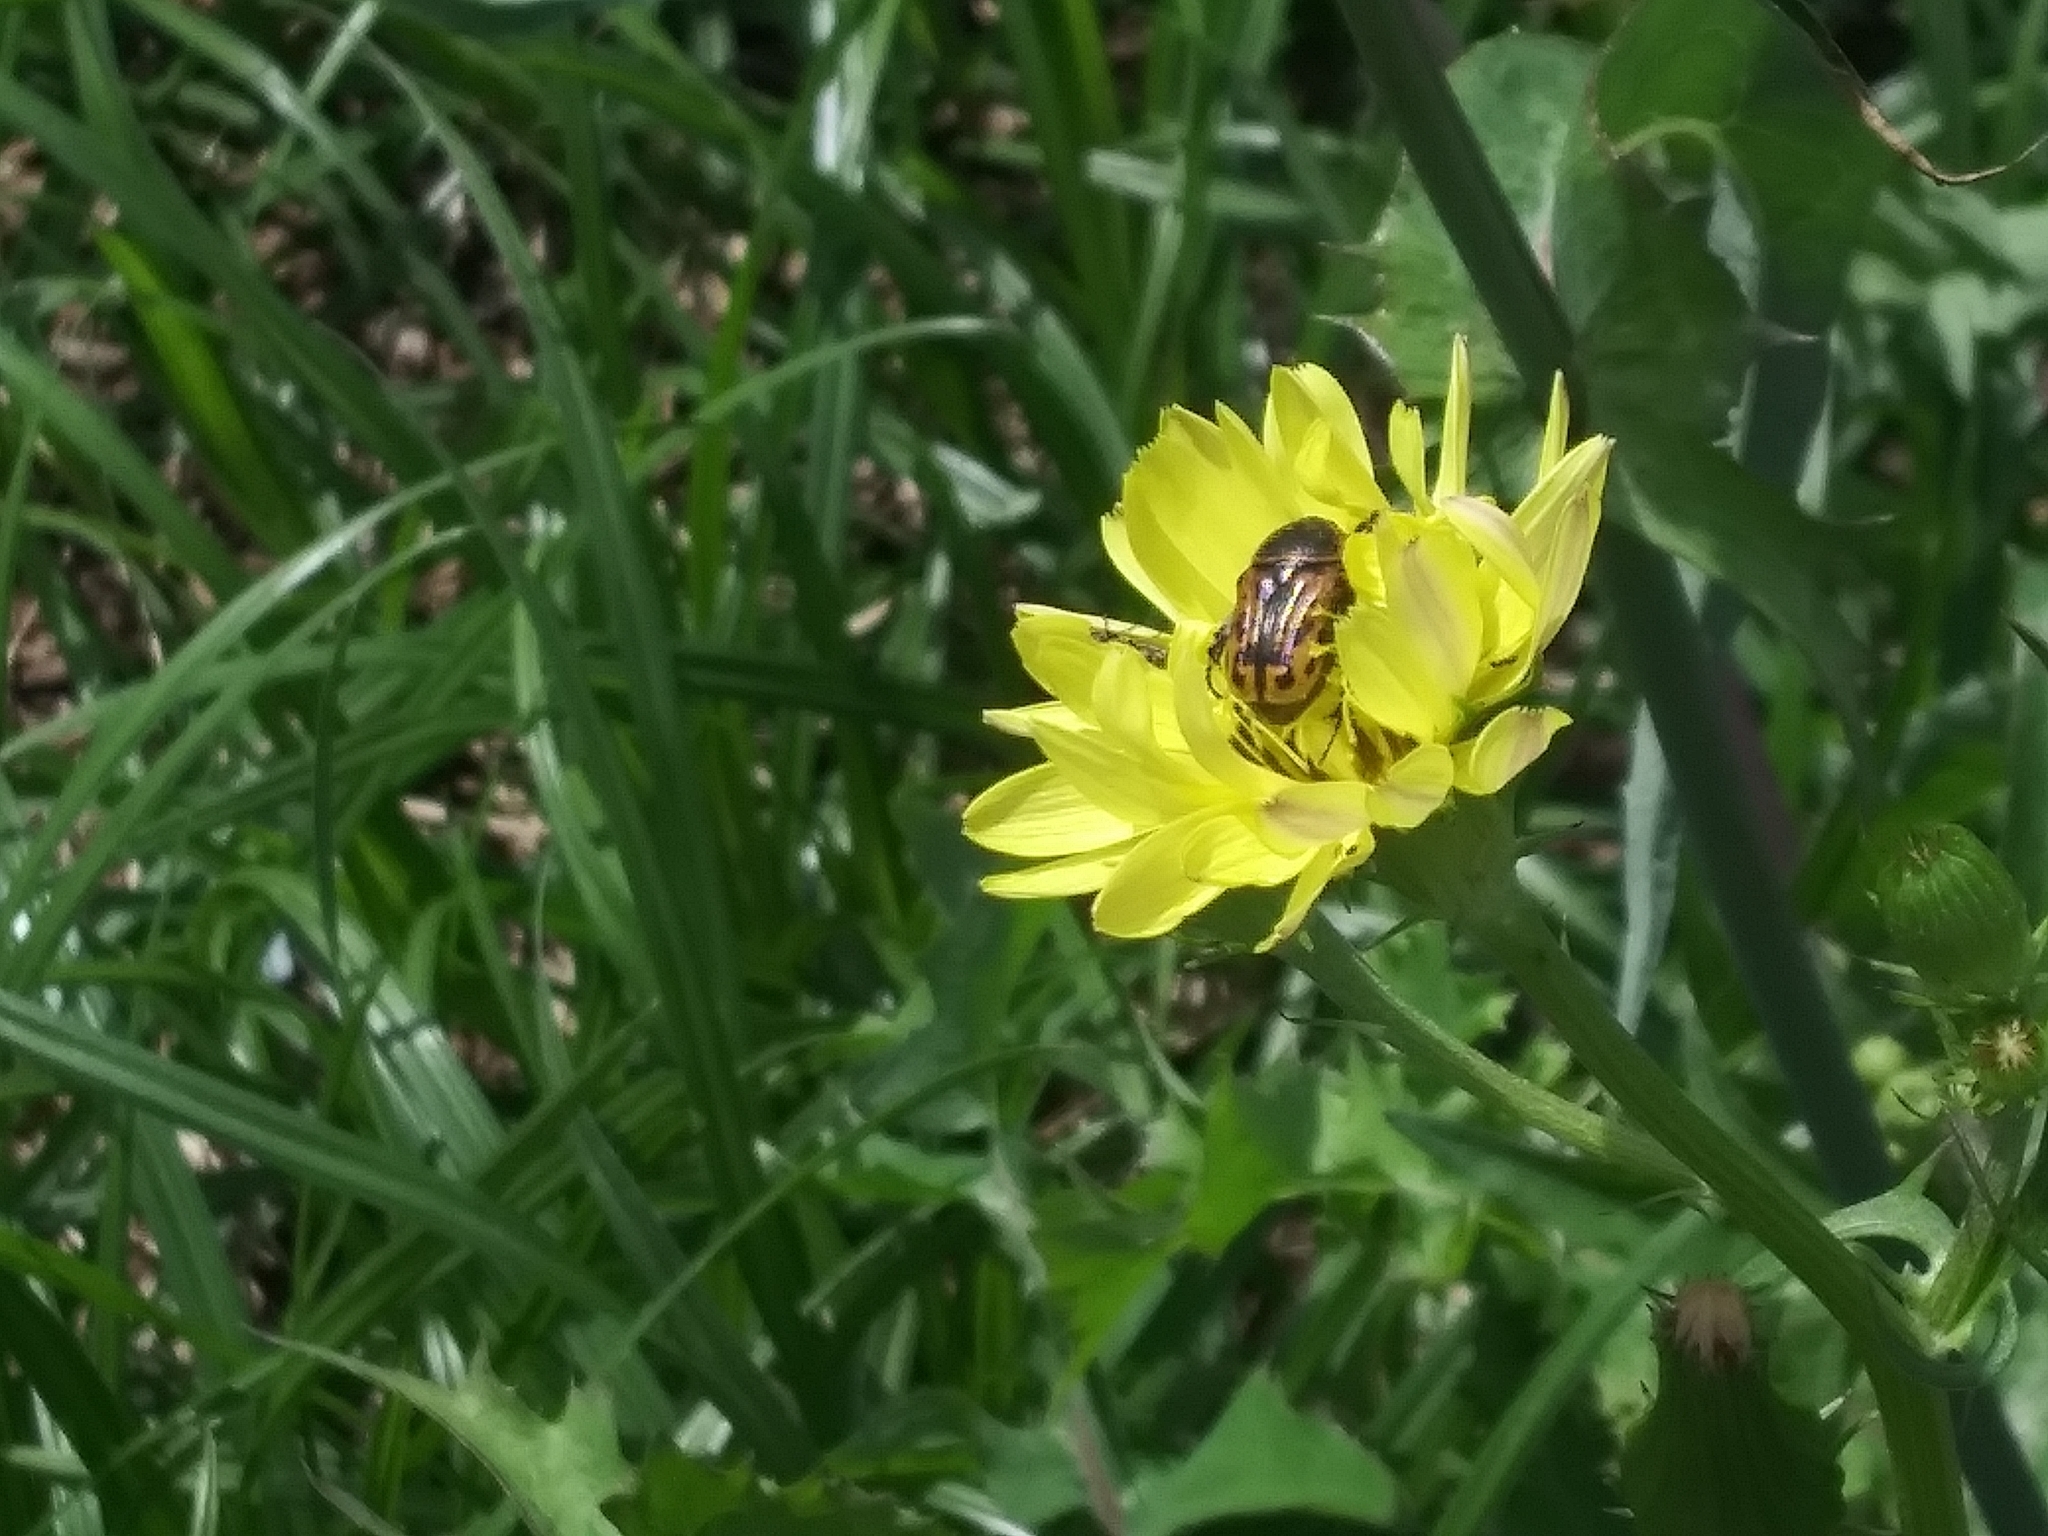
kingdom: Animalia
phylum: Arthropoda
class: Insecta
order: Coleoptera
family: Scarabaeidae
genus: Euphoria
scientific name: Euphoria kernii
